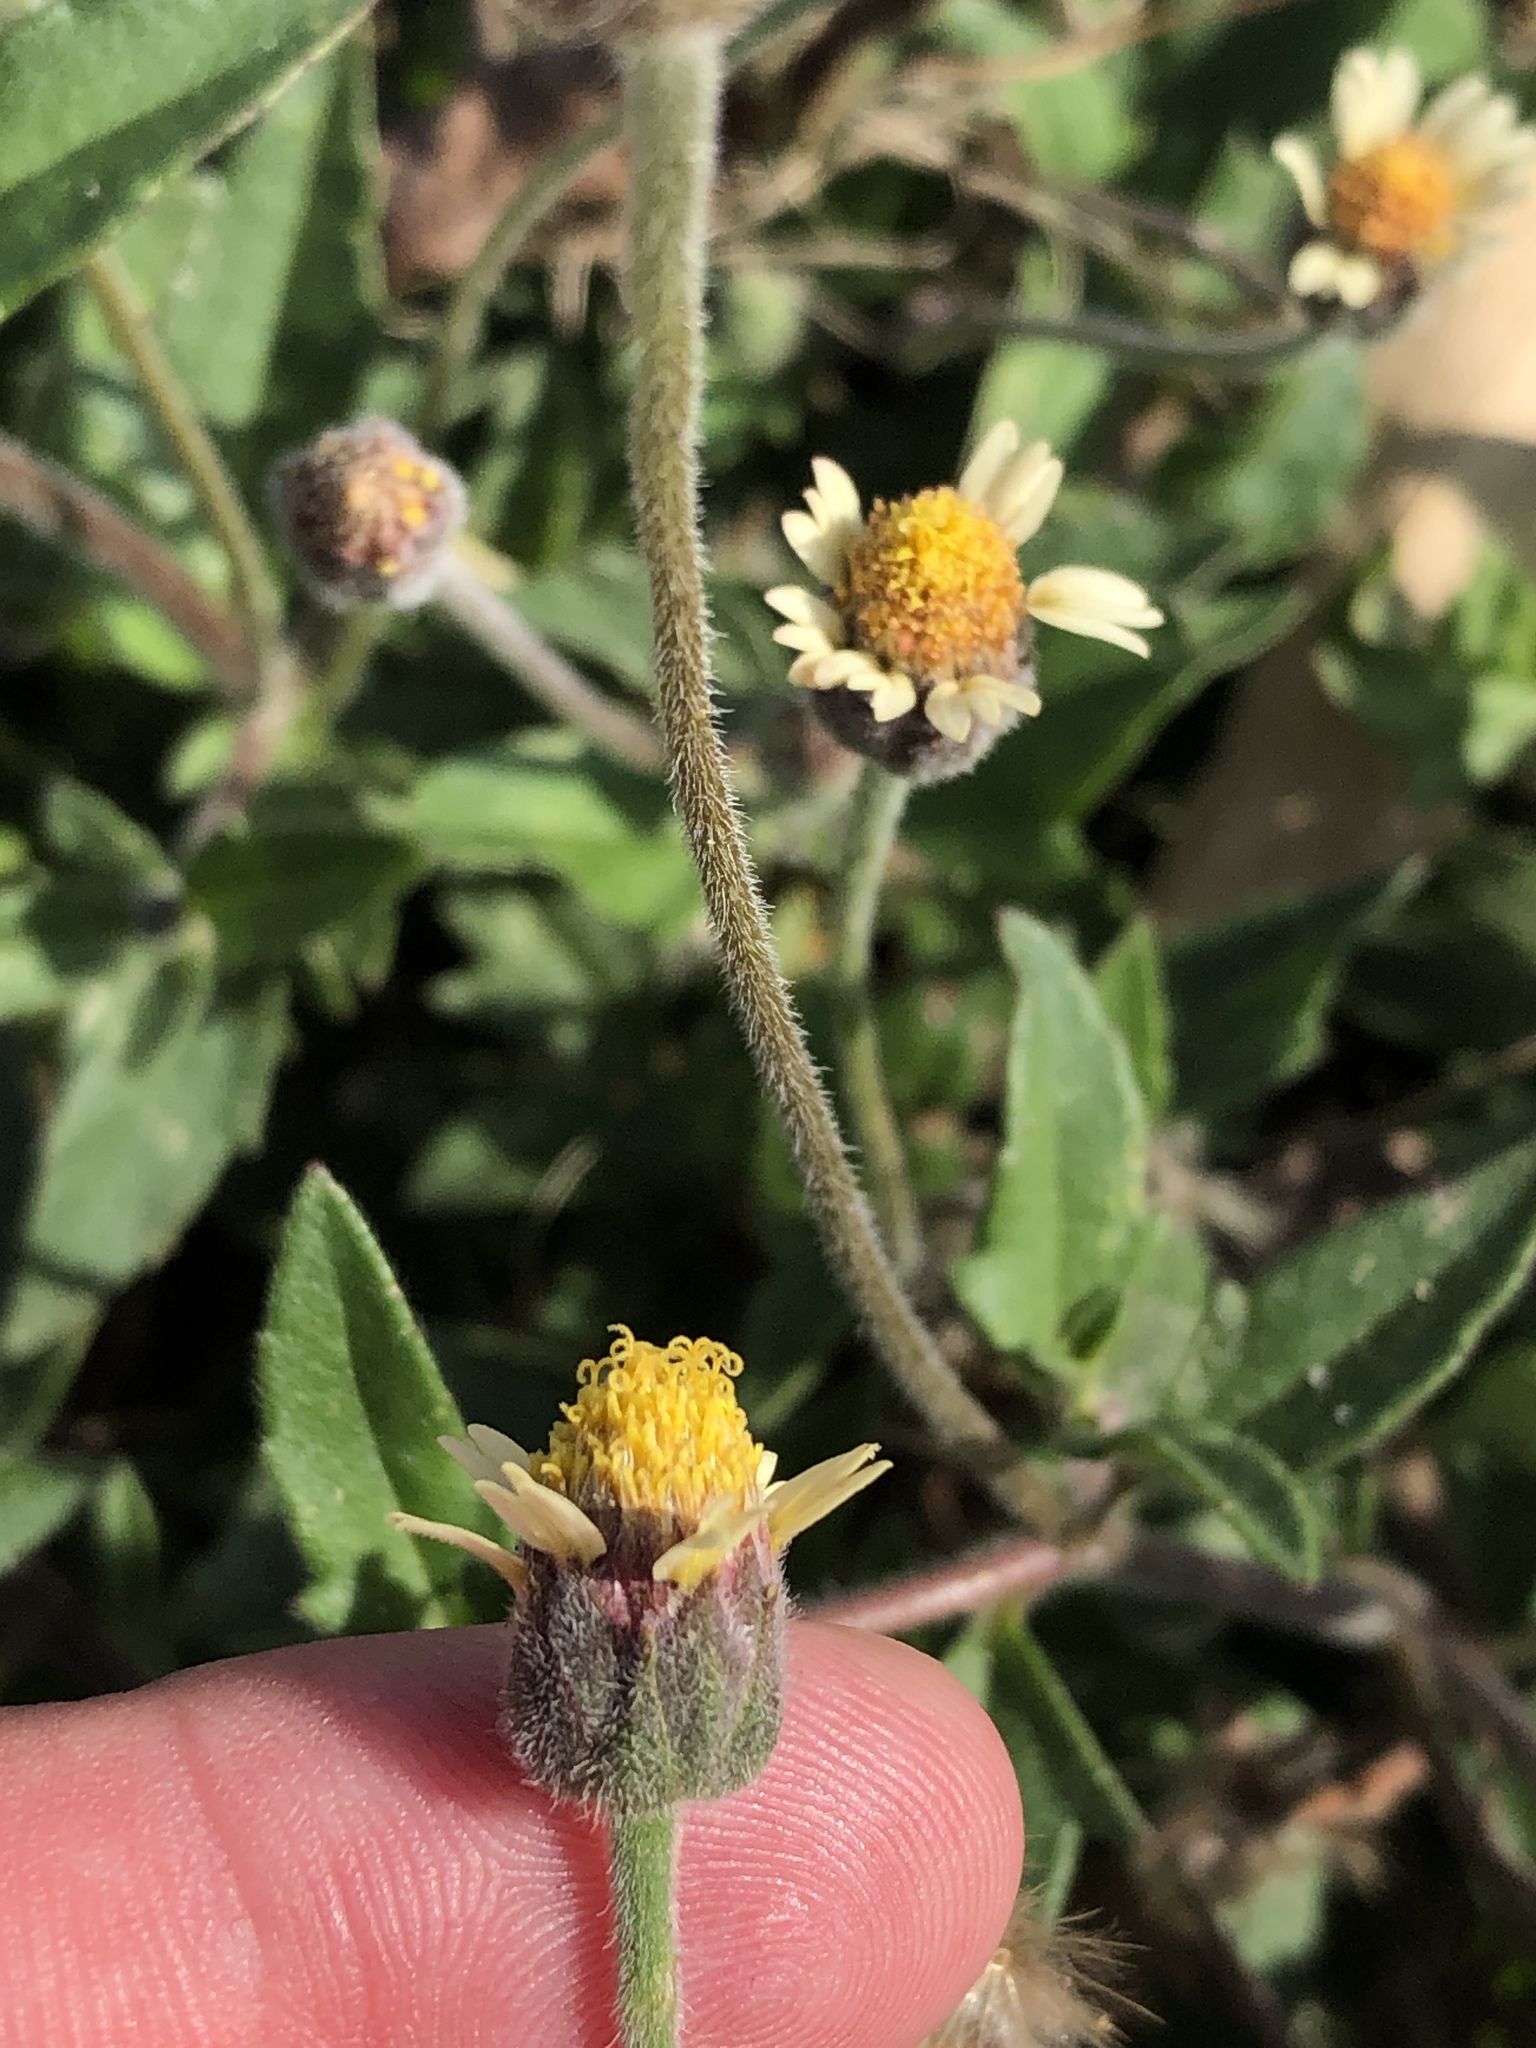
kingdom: Plantae
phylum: Tracheophyta
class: Magnoliopsida
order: Asterales
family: Asteraceae
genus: Tridax
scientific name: Tridax procumbens
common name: Coatbuttons
